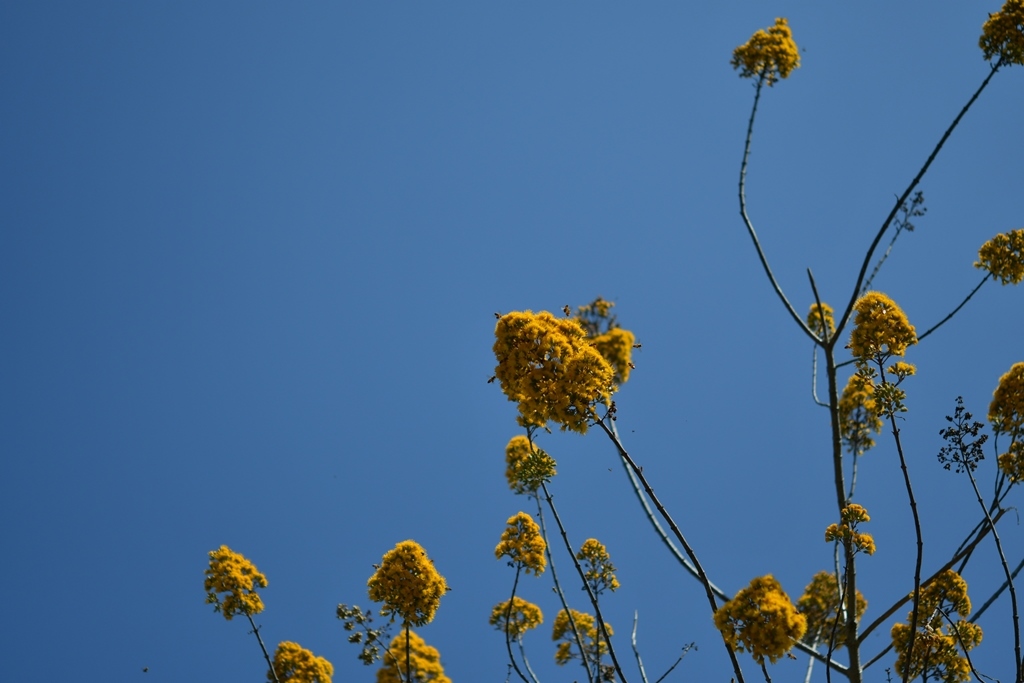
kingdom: Plantae
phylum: Tracheophyta
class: Magnoliopsida
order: Asterales
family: Asteraceae
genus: Sinclairia
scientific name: Sinclairia vagans
